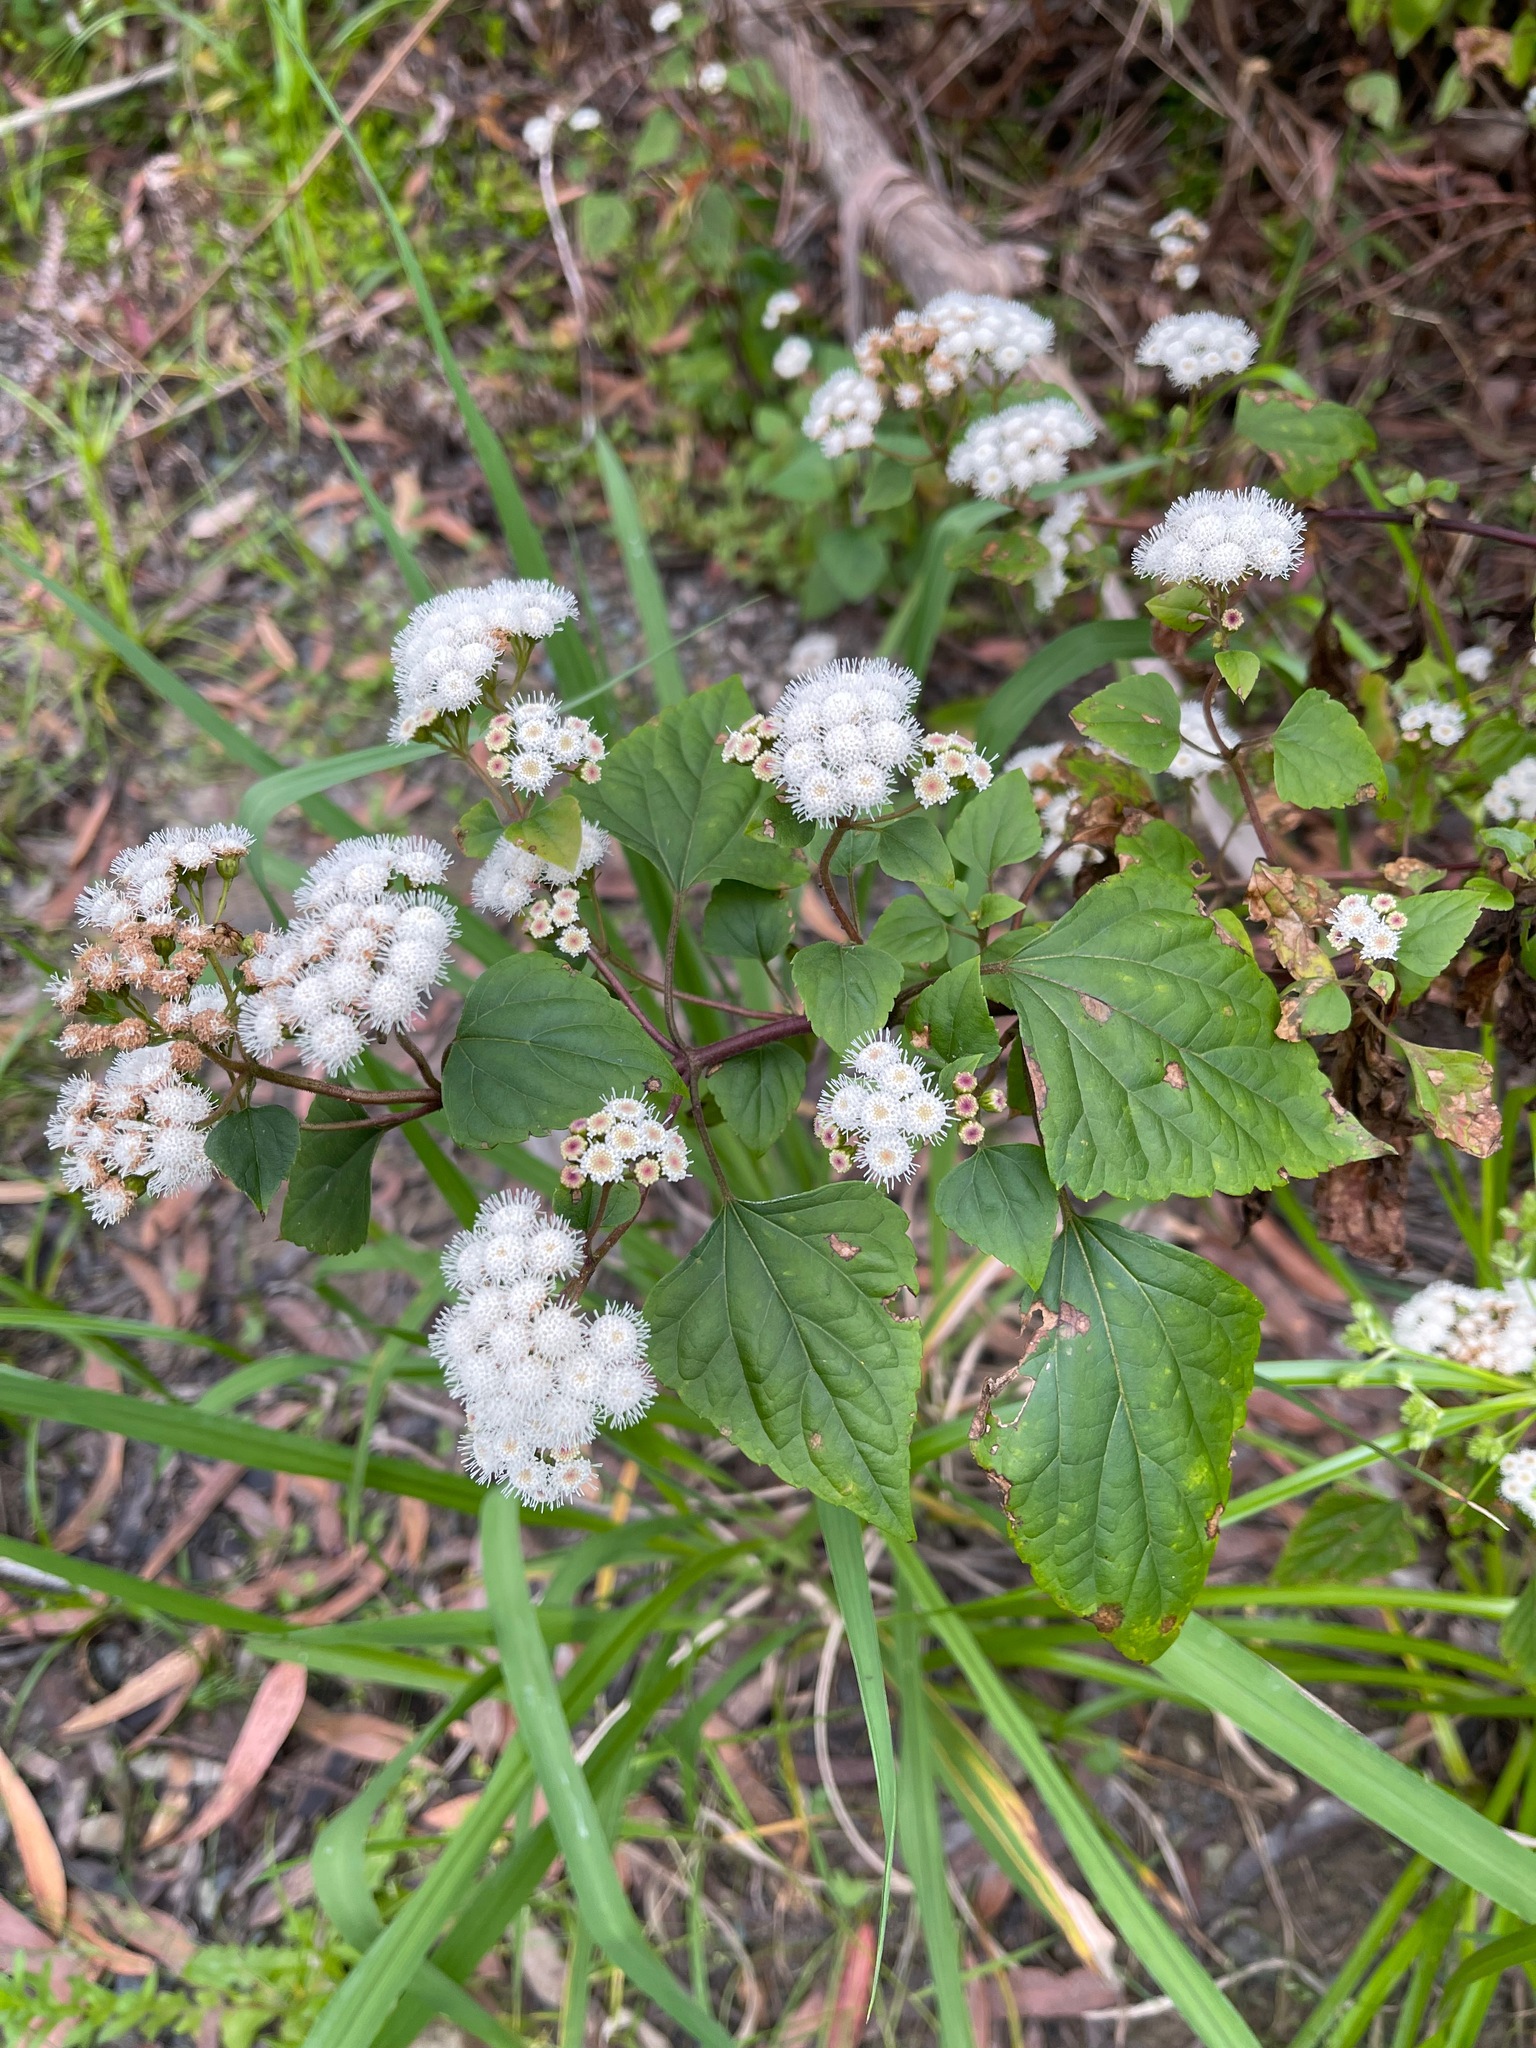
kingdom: Plantae
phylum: Tracheophyta
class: Magnoliopsida
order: Asterales
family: Asteraceae
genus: Ageratina
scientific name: Ageratina adenophora
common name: Sticky snakeroot
